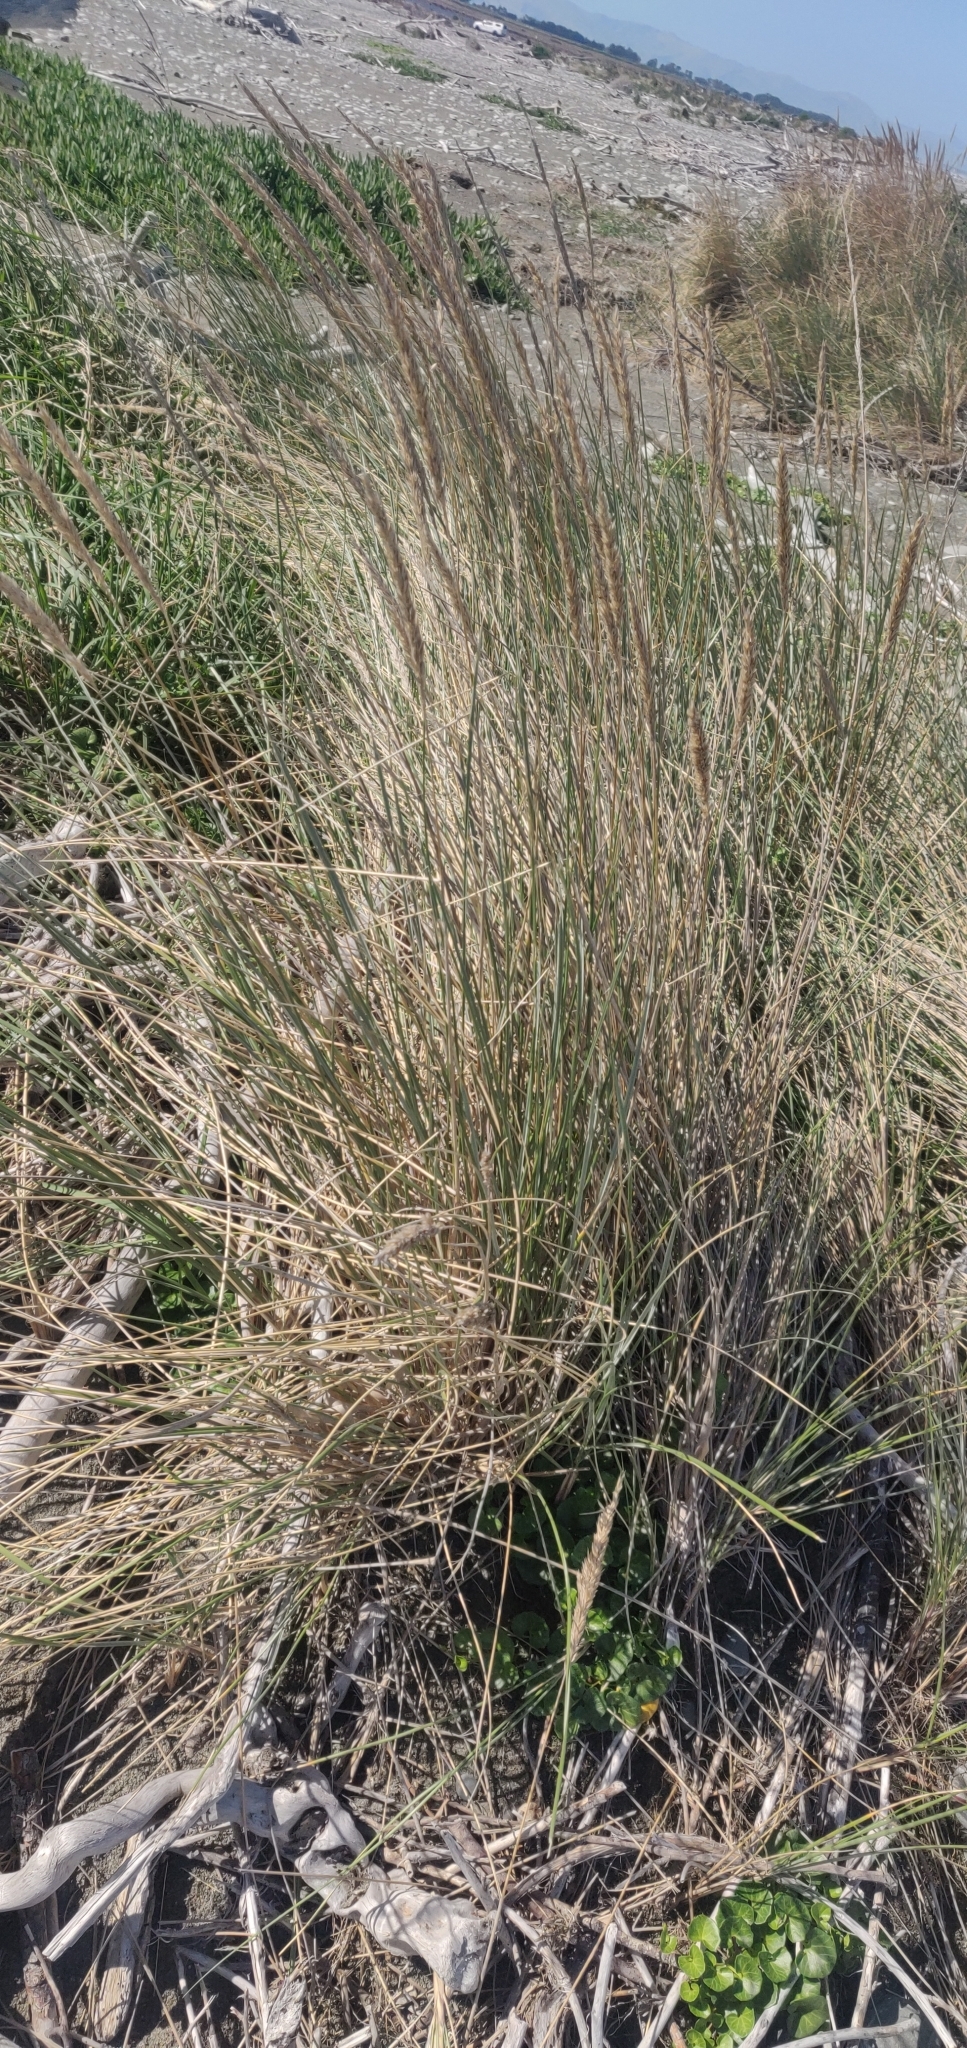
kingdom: Plantae
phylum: Tracheophyta
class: Liliopsida
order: Poales
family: Poaceae
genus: Calamagrostis
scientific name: Calamagrostis arenaria
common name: European beachgrass
